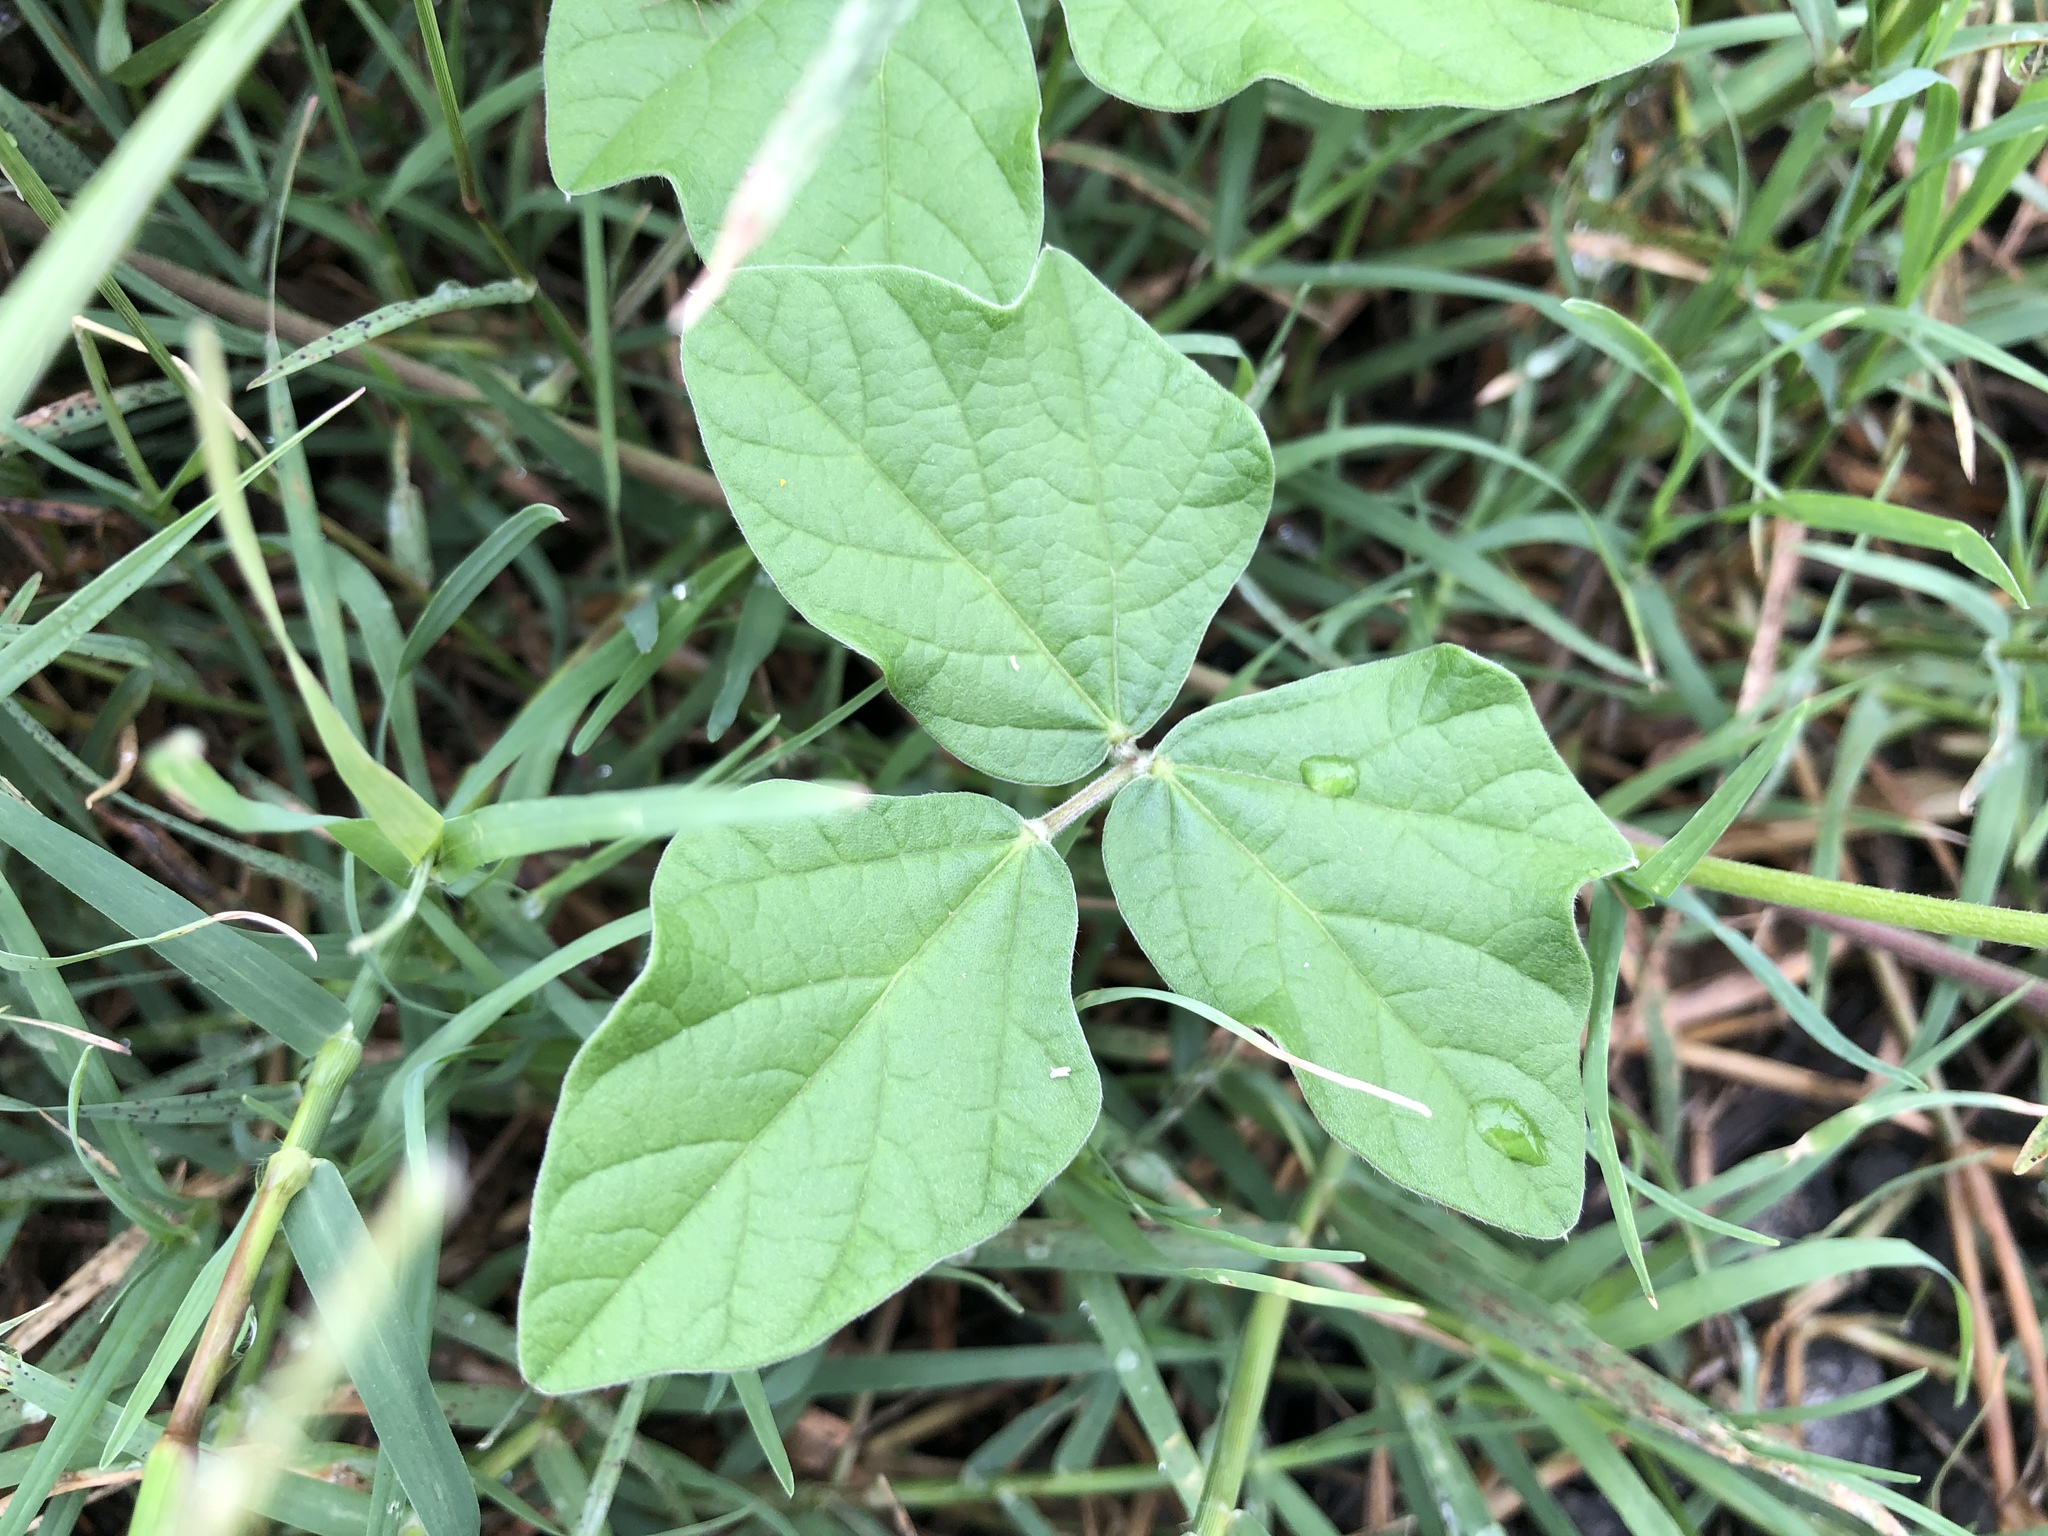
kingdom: Plantae
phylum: Tracheophyta
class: Magnoliopsida
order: Fabales
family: Fabaceae
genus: Macroptilium
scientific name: Macroptilium atropurpureum
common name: Purple bushbean
